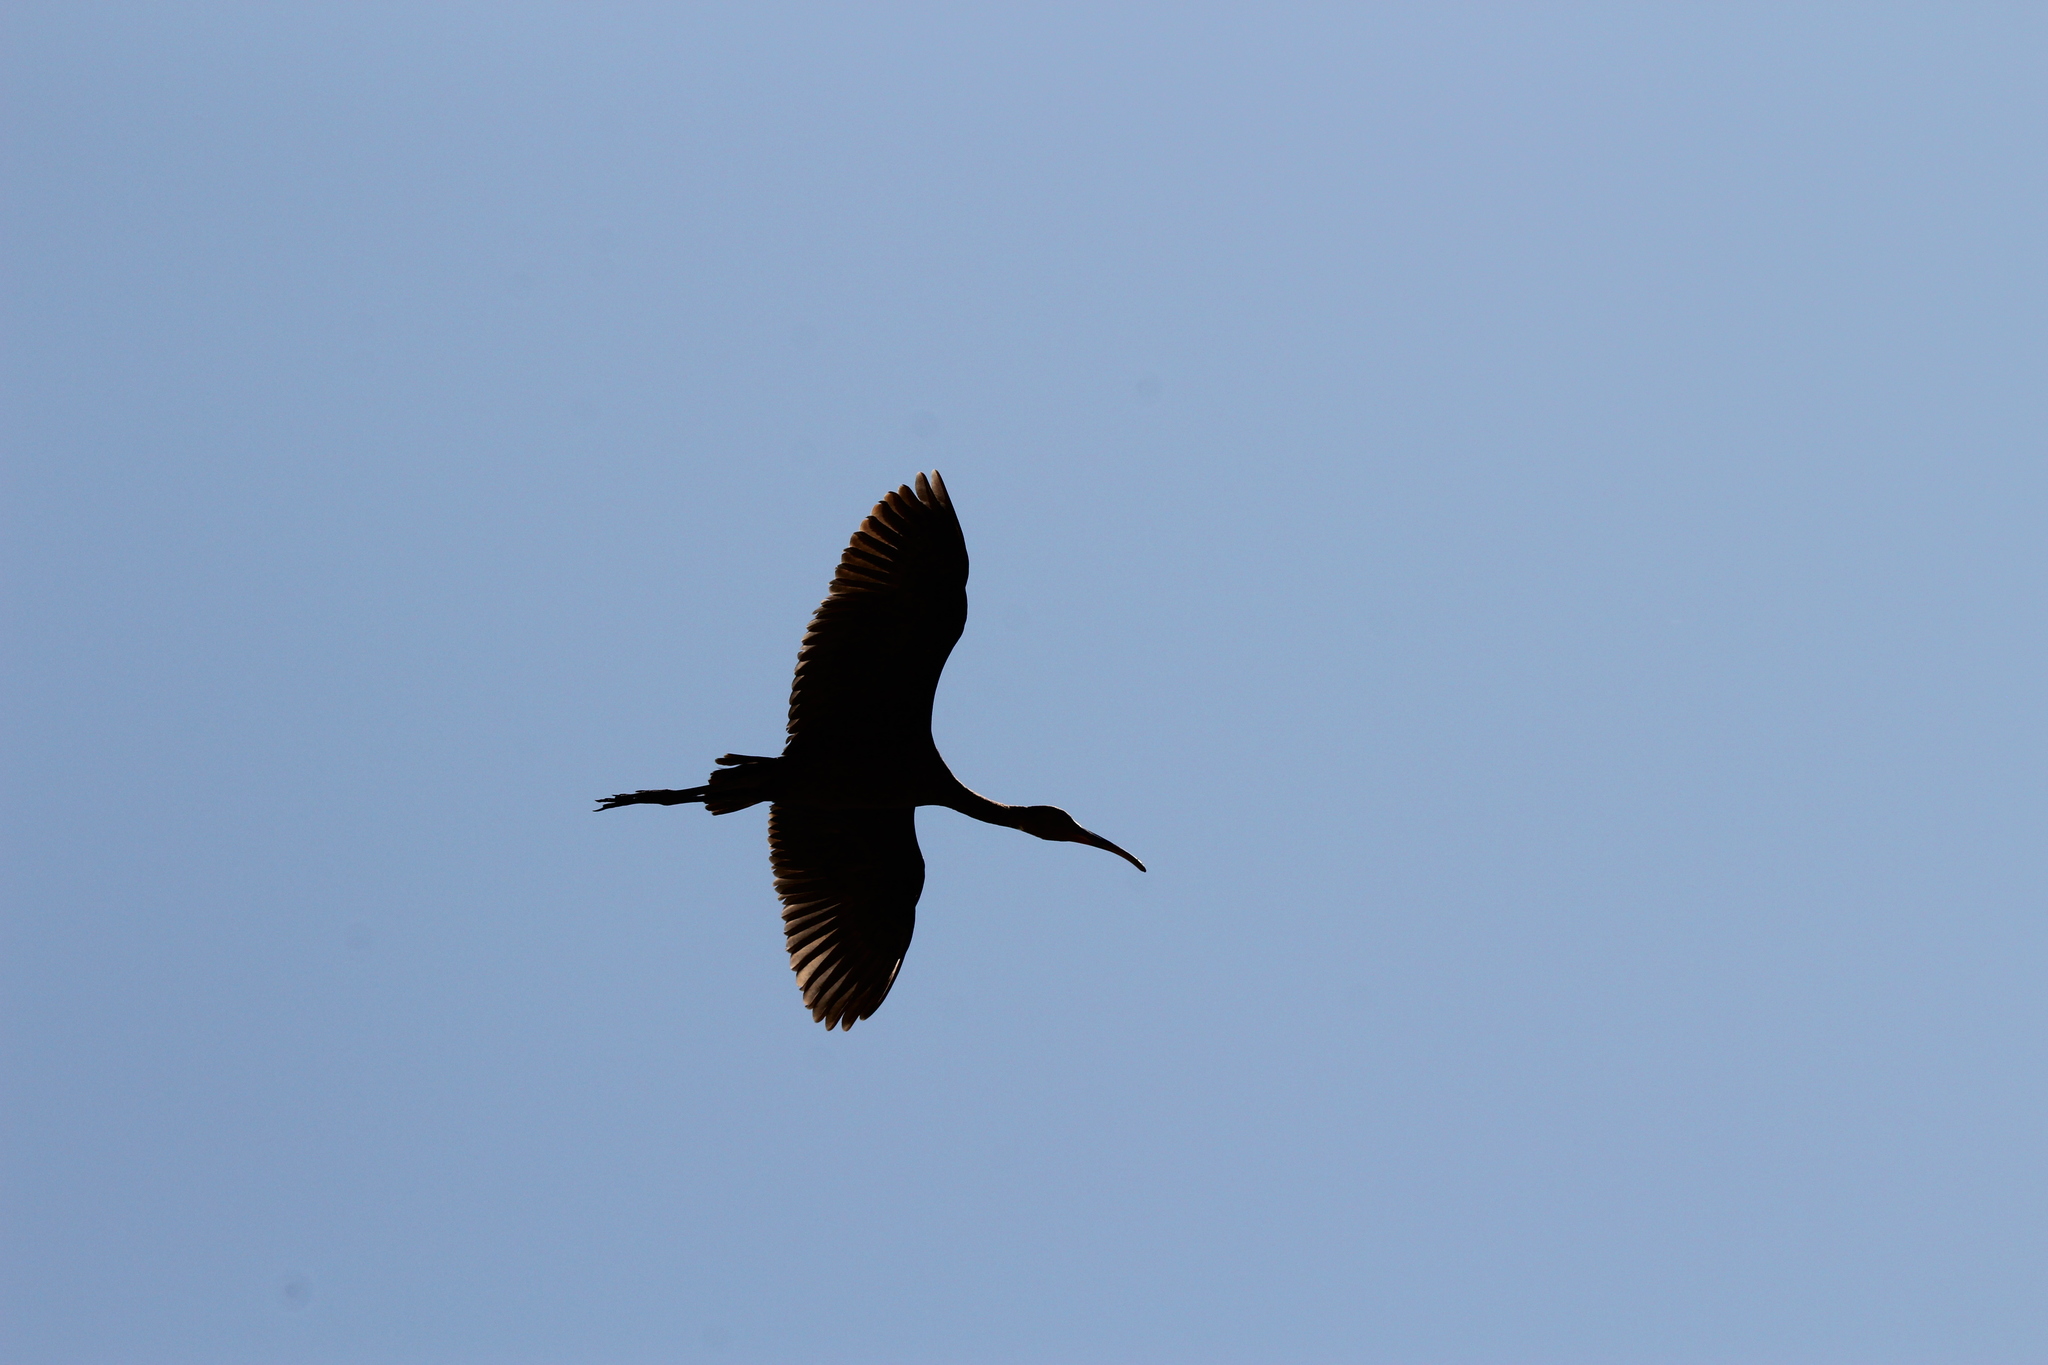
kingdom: Animalia
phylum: Chordata
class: Aves
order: Pelecaniformes
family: Threskiornithidae
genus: Plegadis
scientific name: Plegadis chihi
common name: White-faced ibis
